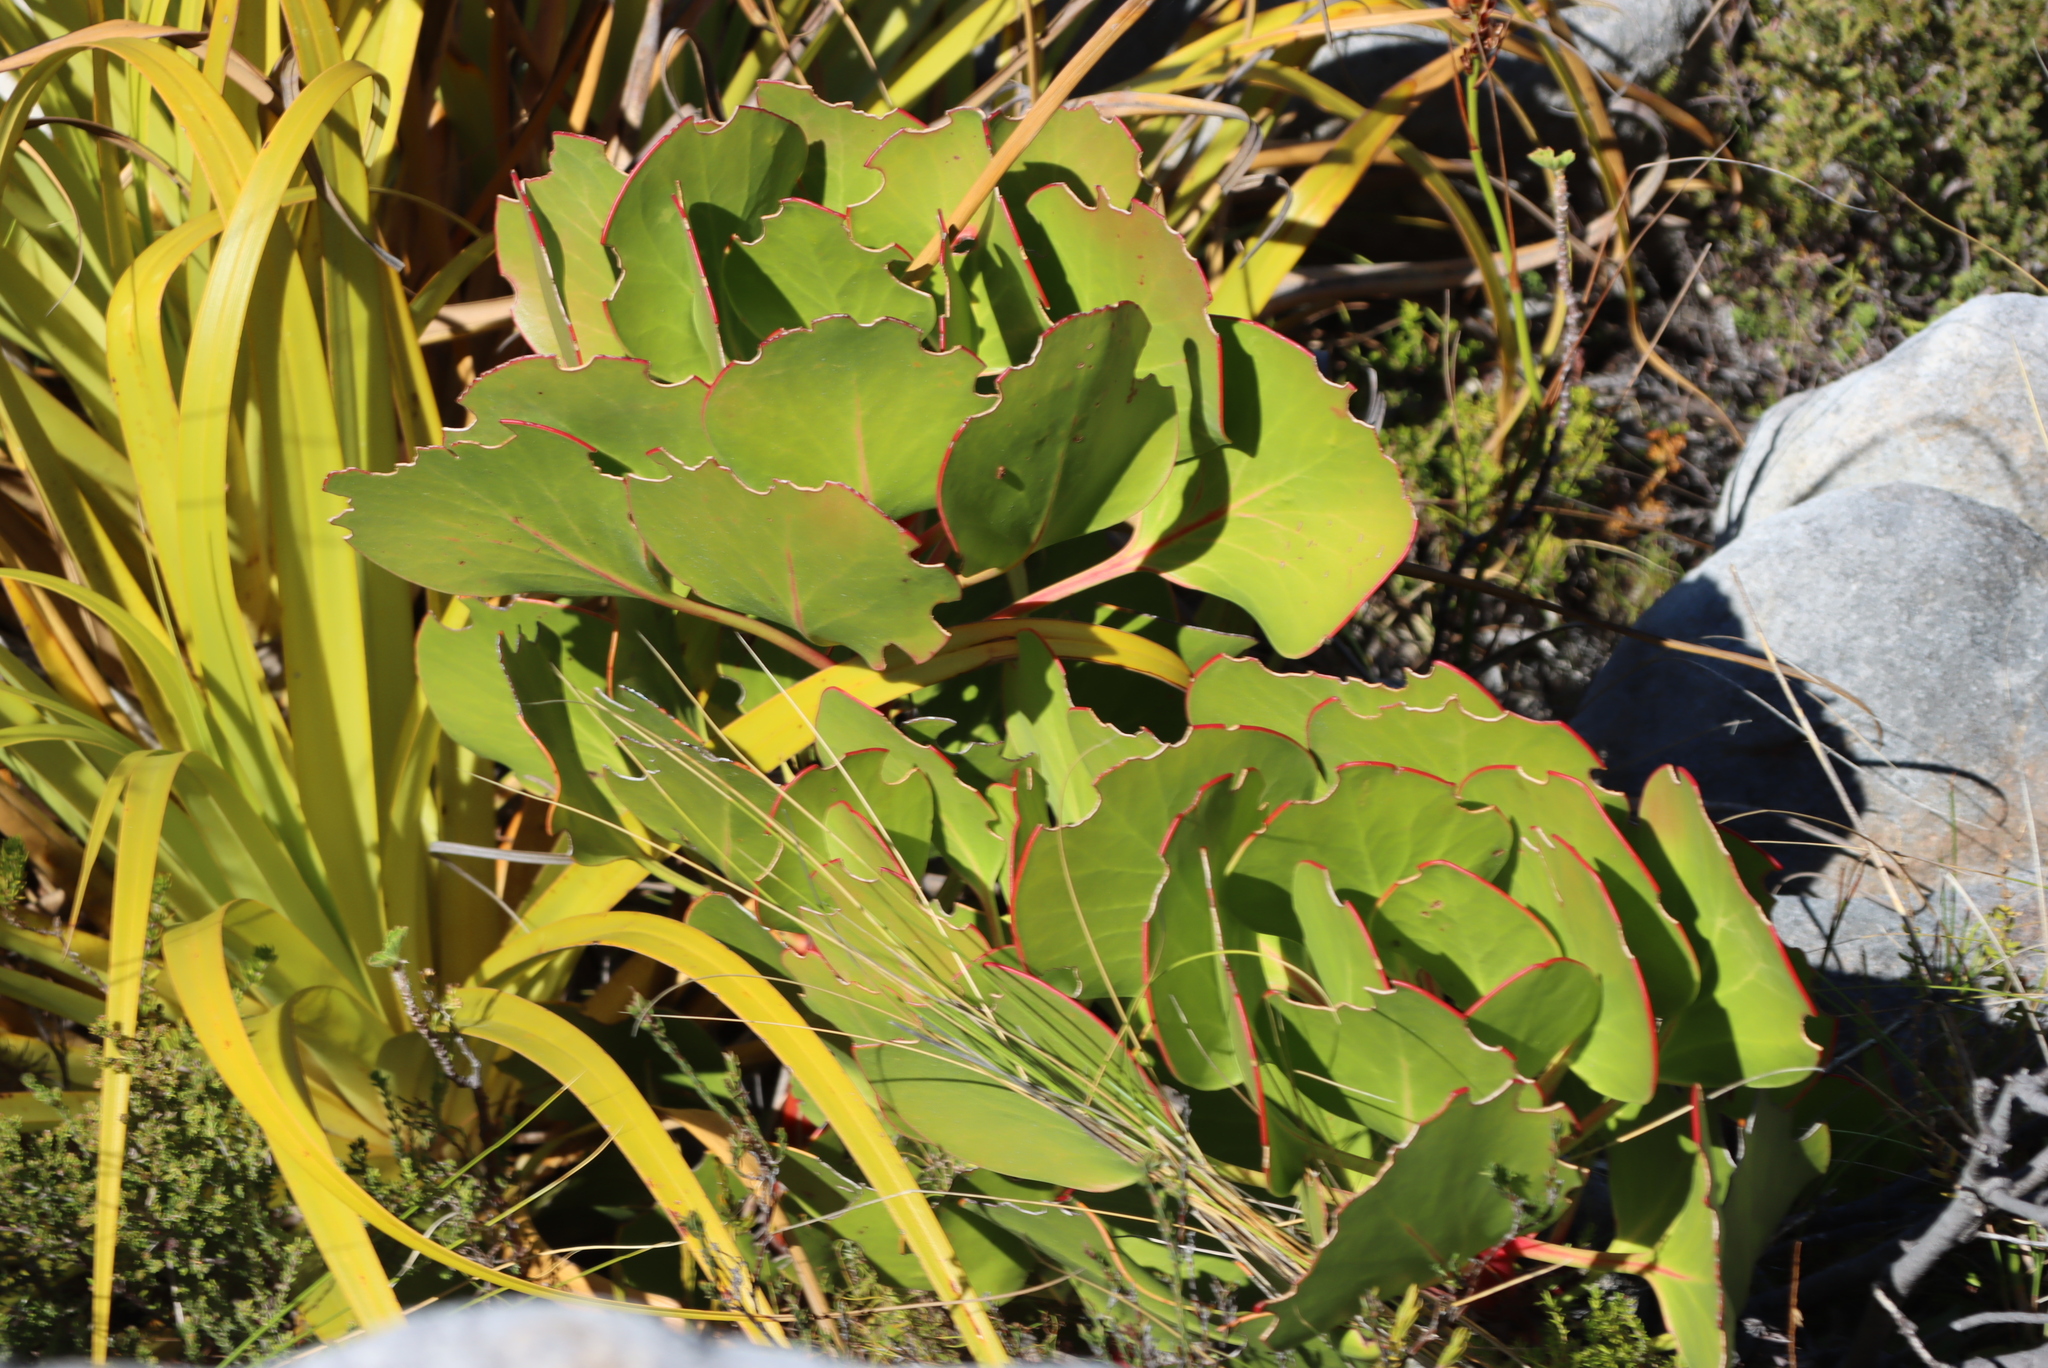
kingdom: Plantae
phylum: Tracheophyta
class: Magnoliopsida
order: Proteales
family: Proteaceae
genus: Protea
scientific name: Protea cynaroides
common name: King protea
